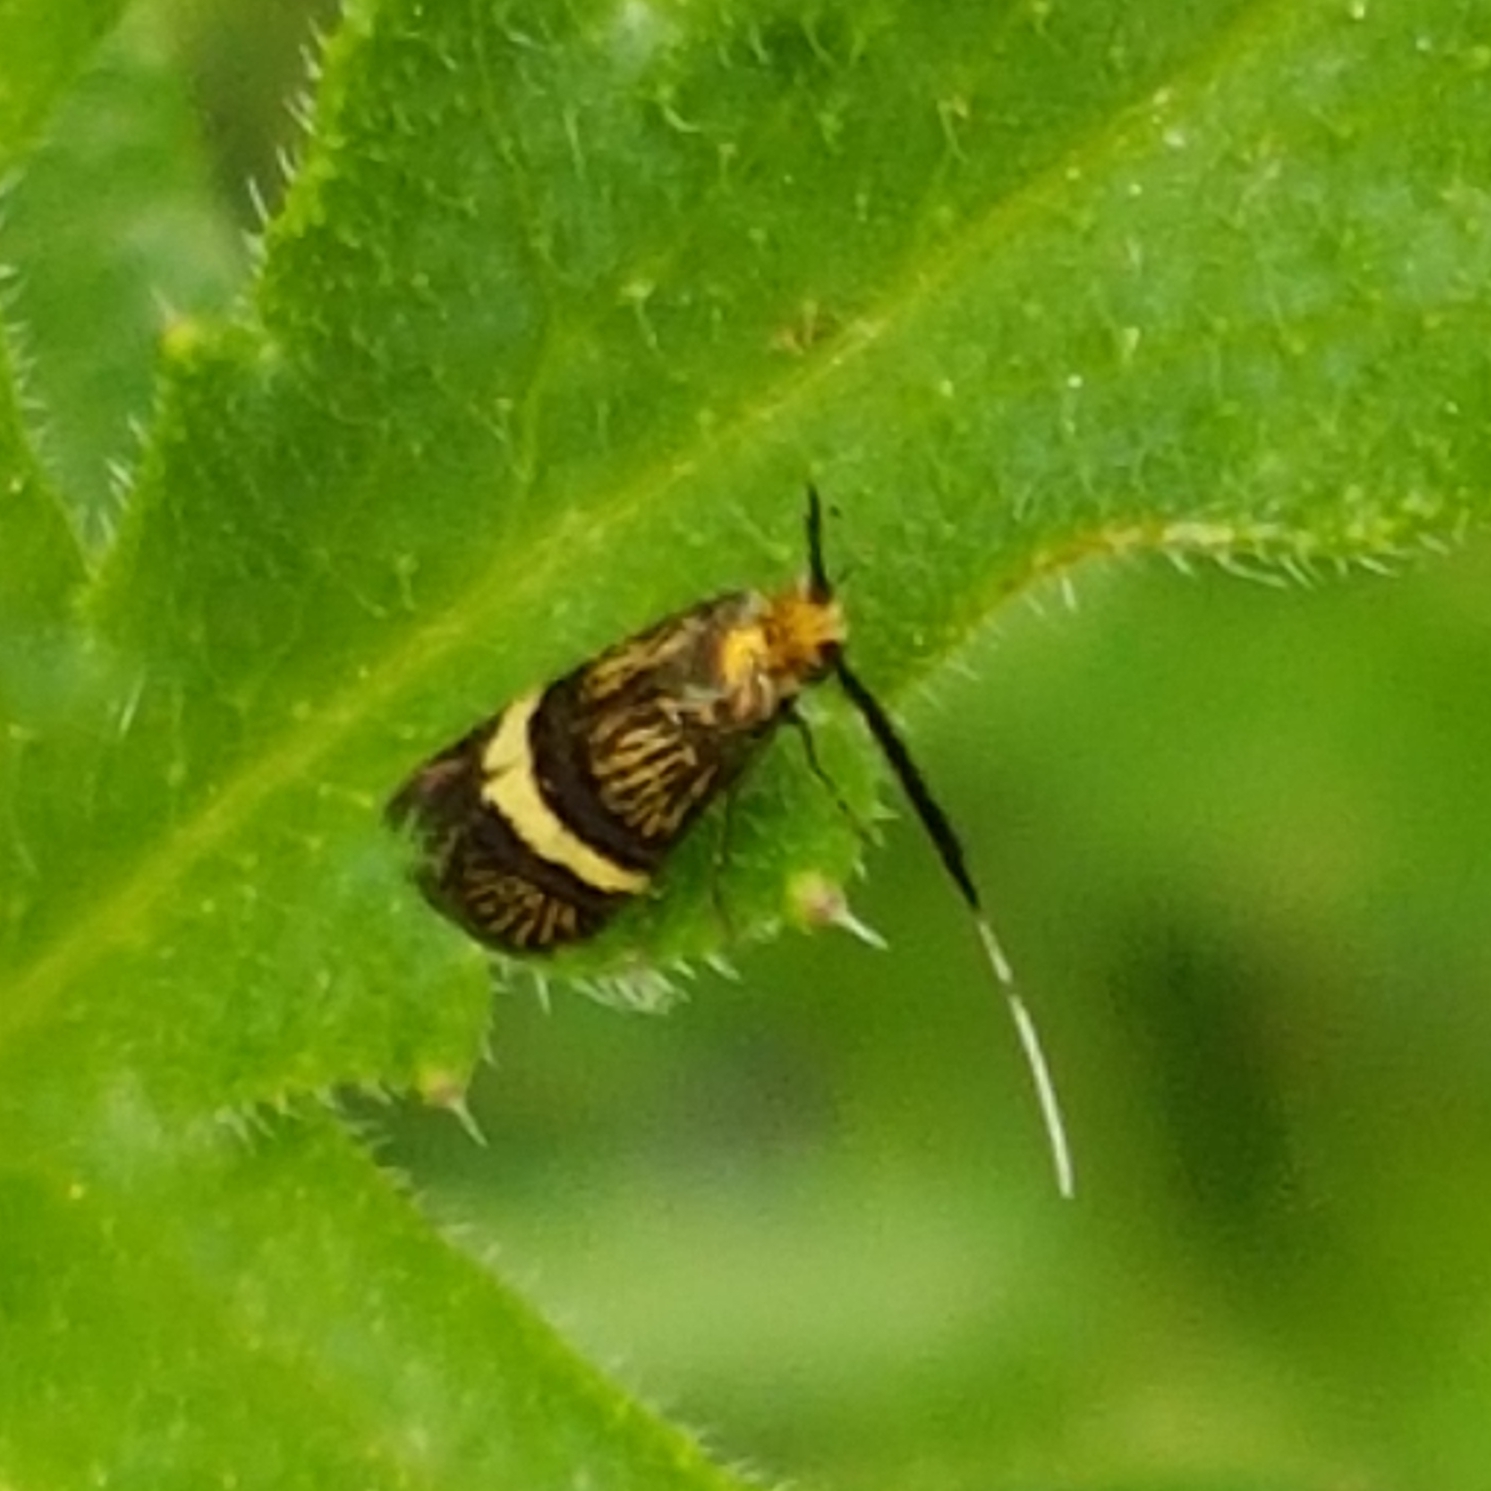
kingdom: Animalia
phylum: Arthropoda
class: Insecta
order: Lepidoptera
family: Adelidae
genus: Adela
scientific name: Adela croesella
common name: Small barred long-horn
